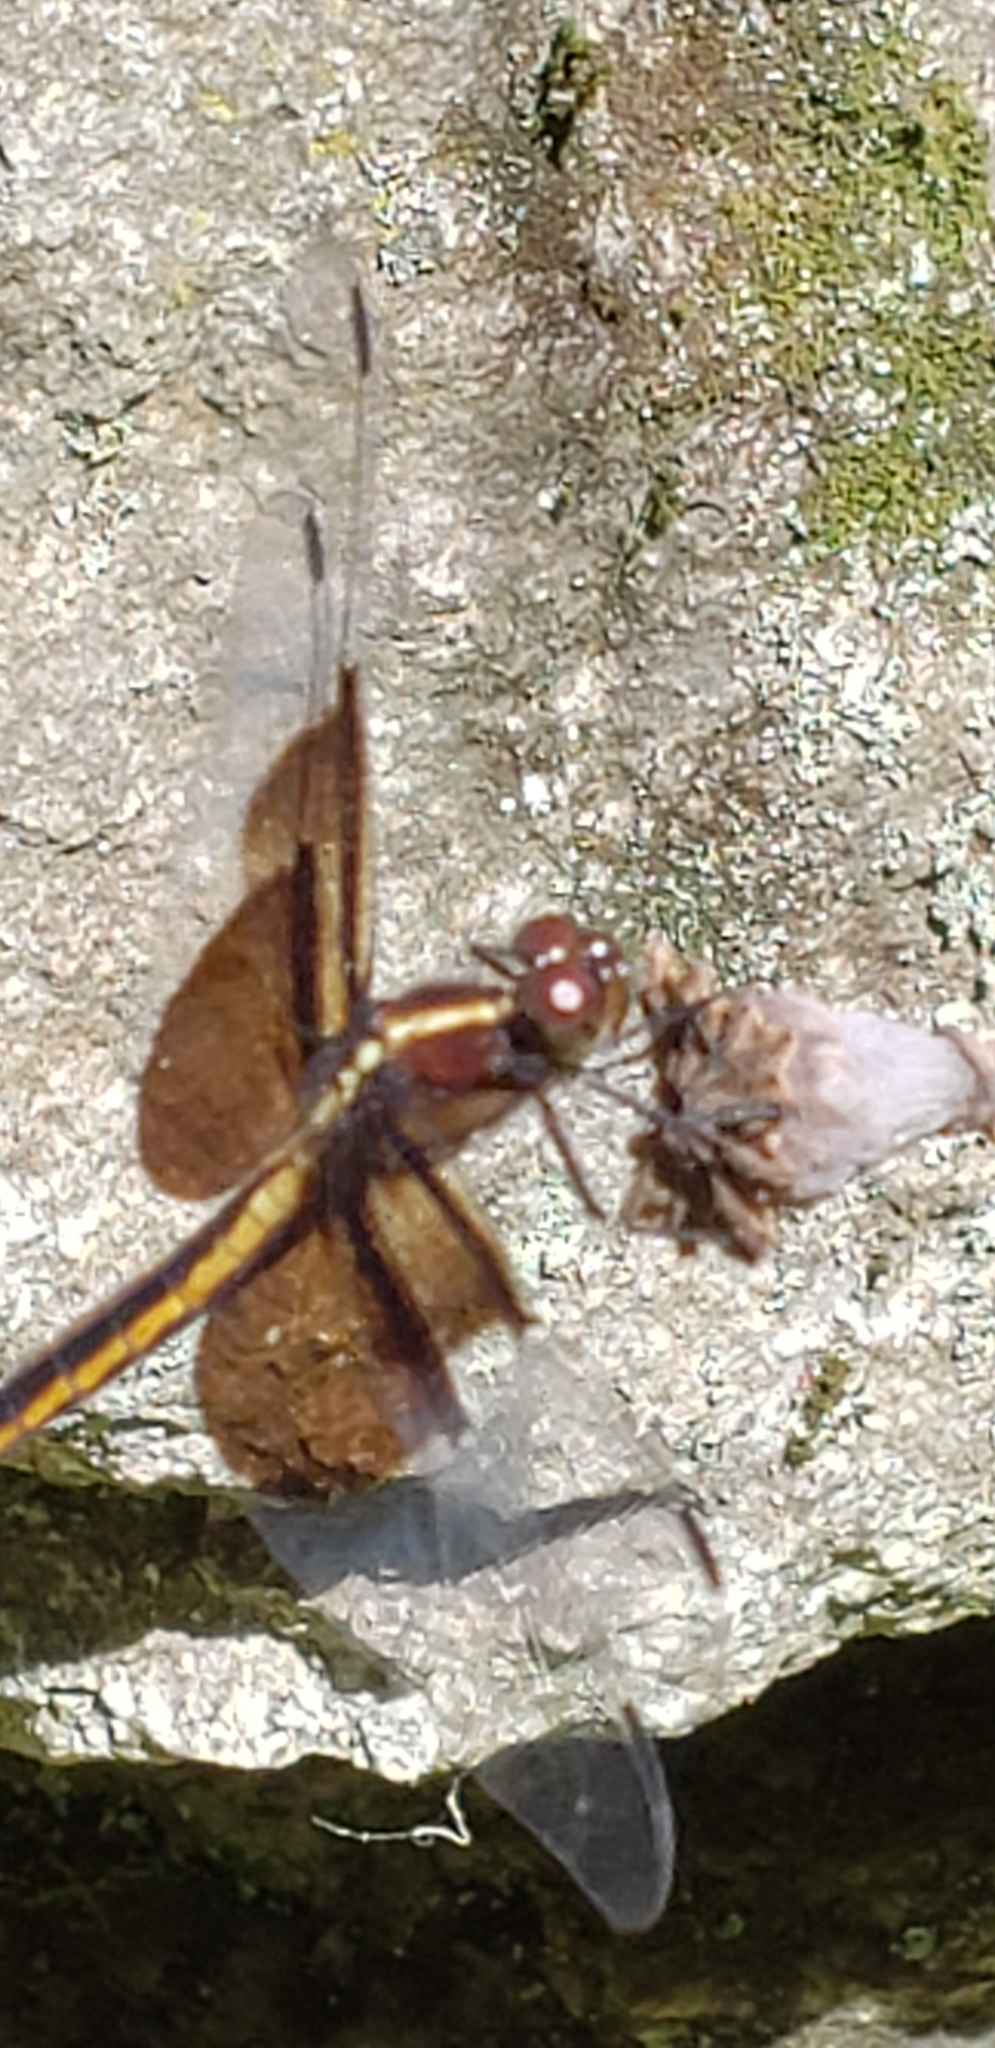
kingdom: Animalia
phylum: Arthropoda
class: Insecta
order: Odonata
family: Libellulidae
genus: Libellula
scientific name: Libellula luctuosa
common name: Widow skimmer
